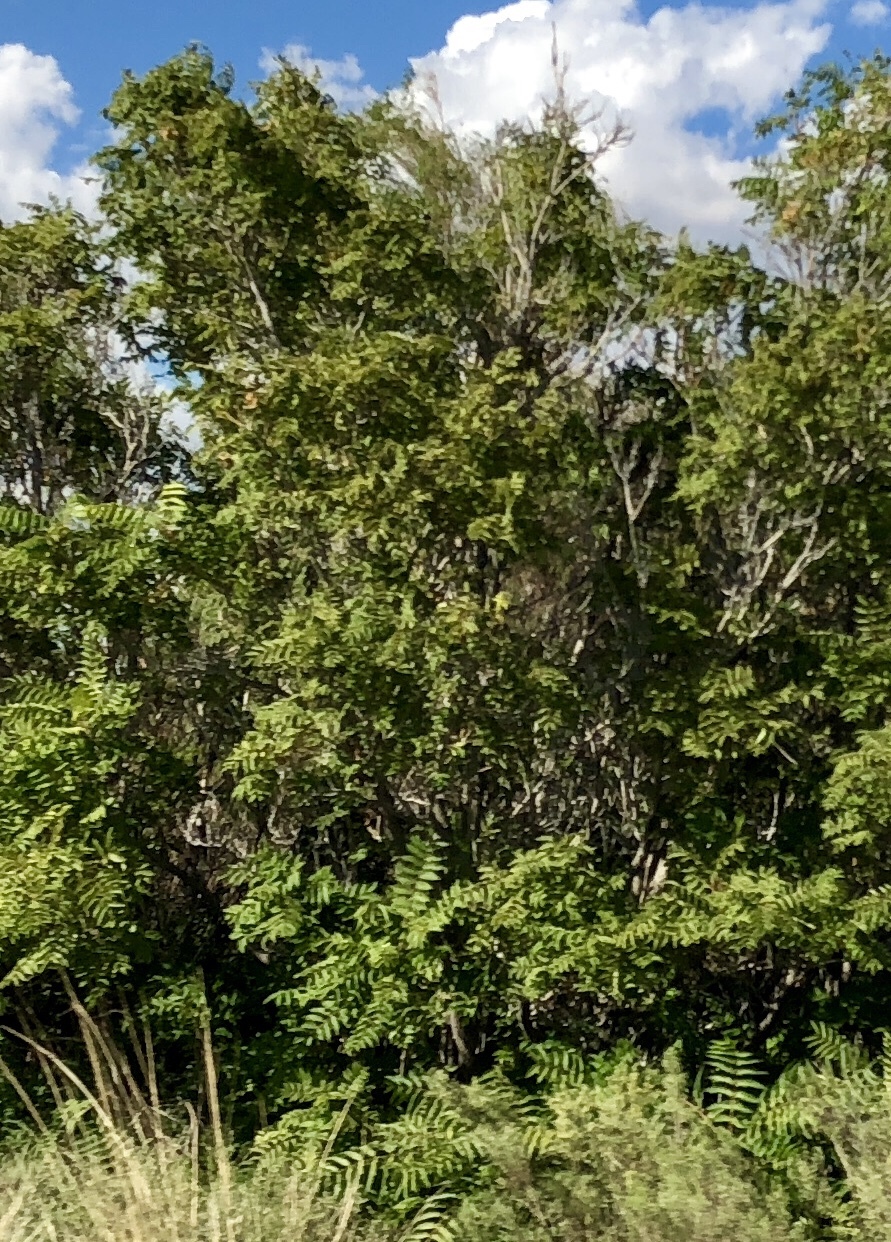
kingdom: Plantae
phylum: Tracheophyta
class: Magnoliopsida
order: Sapindales
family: Simaroubaceae
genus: Ailanthus
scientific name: Ailanthus altissima
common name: Tree-of-heaven
